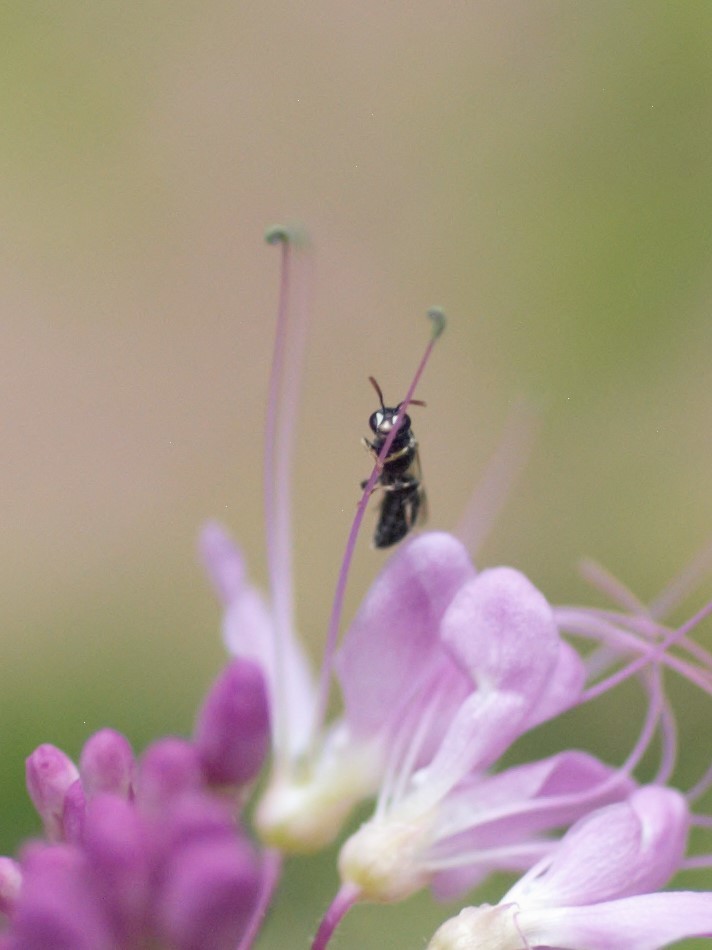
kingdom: Animalia
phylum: Arthropoda
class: Insecta
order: Hymenoptera
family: Colletidae
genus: Hylaeus
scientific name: Hylaeus
